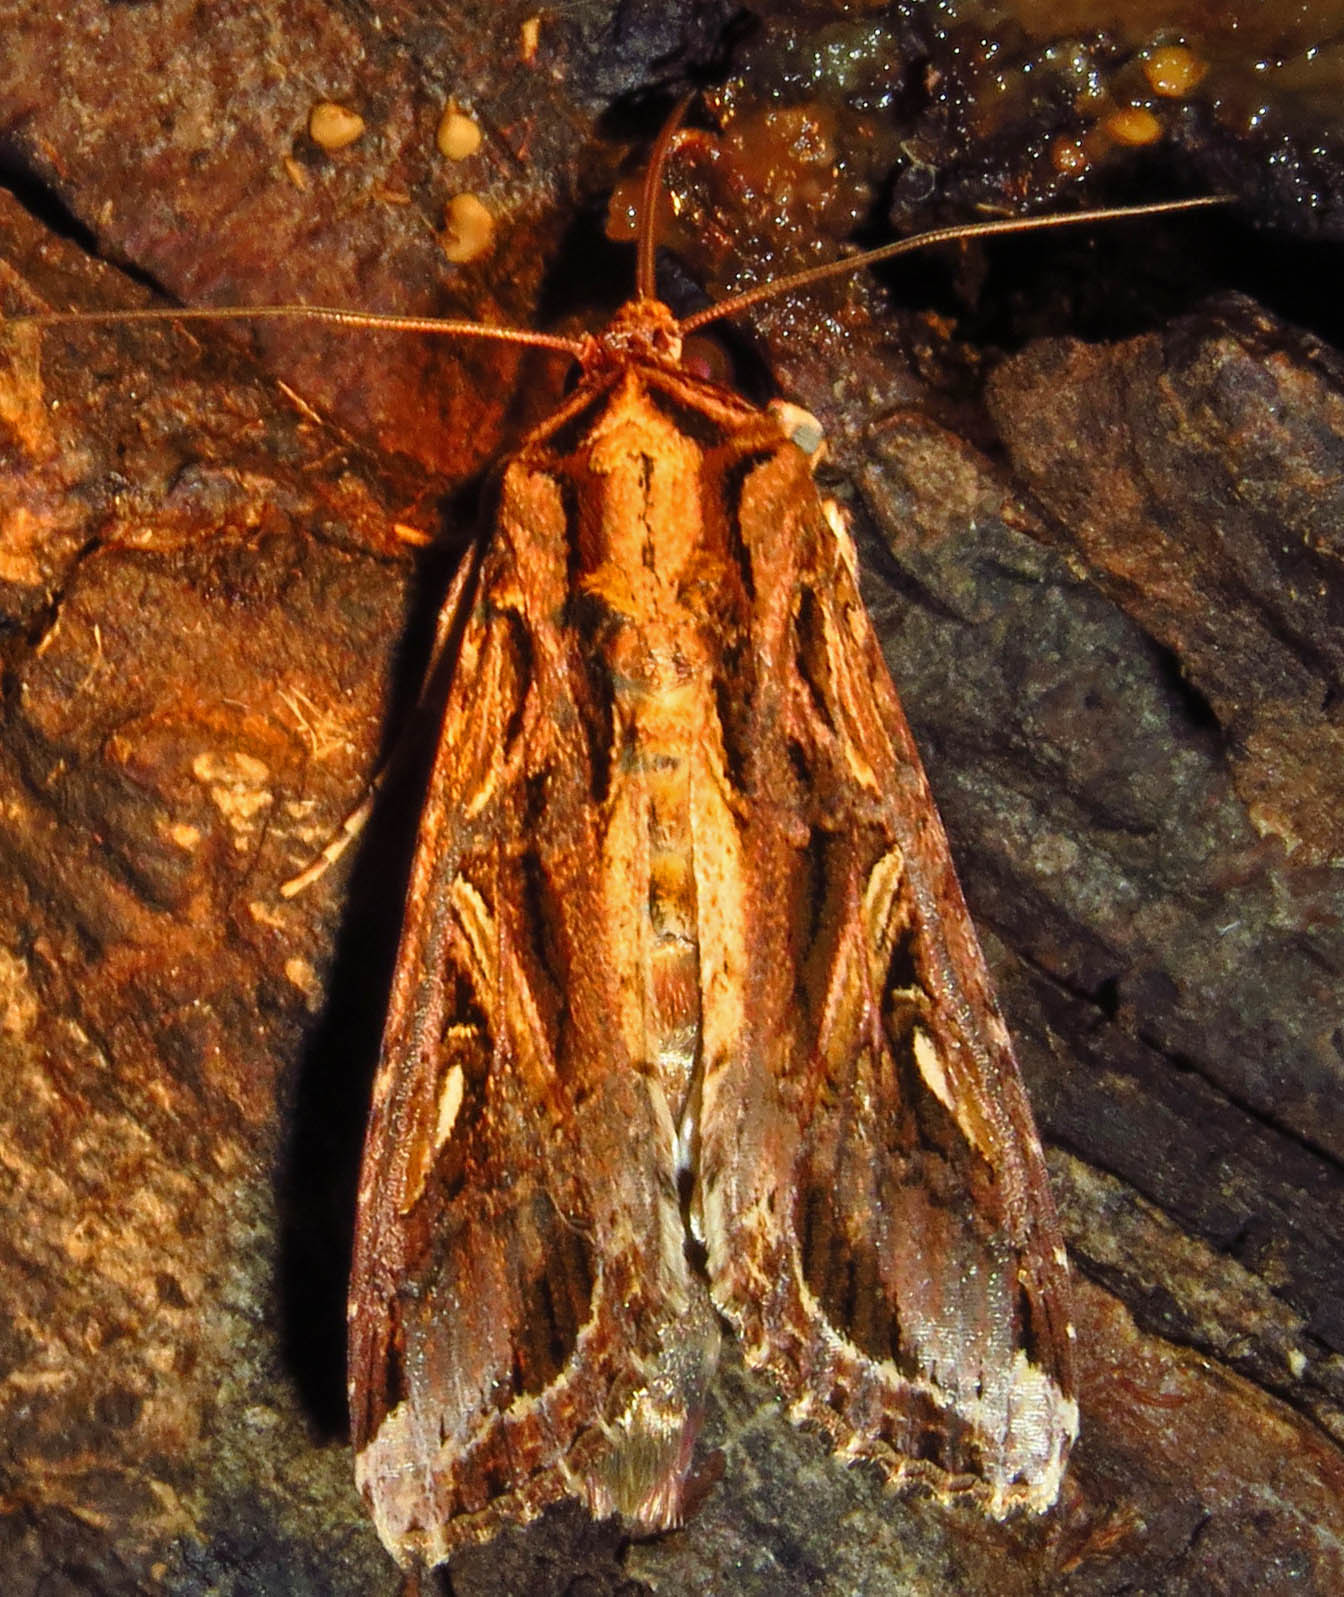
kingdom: Animalia
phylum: Arthropoda
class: Insecta
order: Lepidoptera
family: Noctuidae
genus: Spodoptera
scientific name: Spodoptera dolichos
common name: Sweetpotato armyworm
